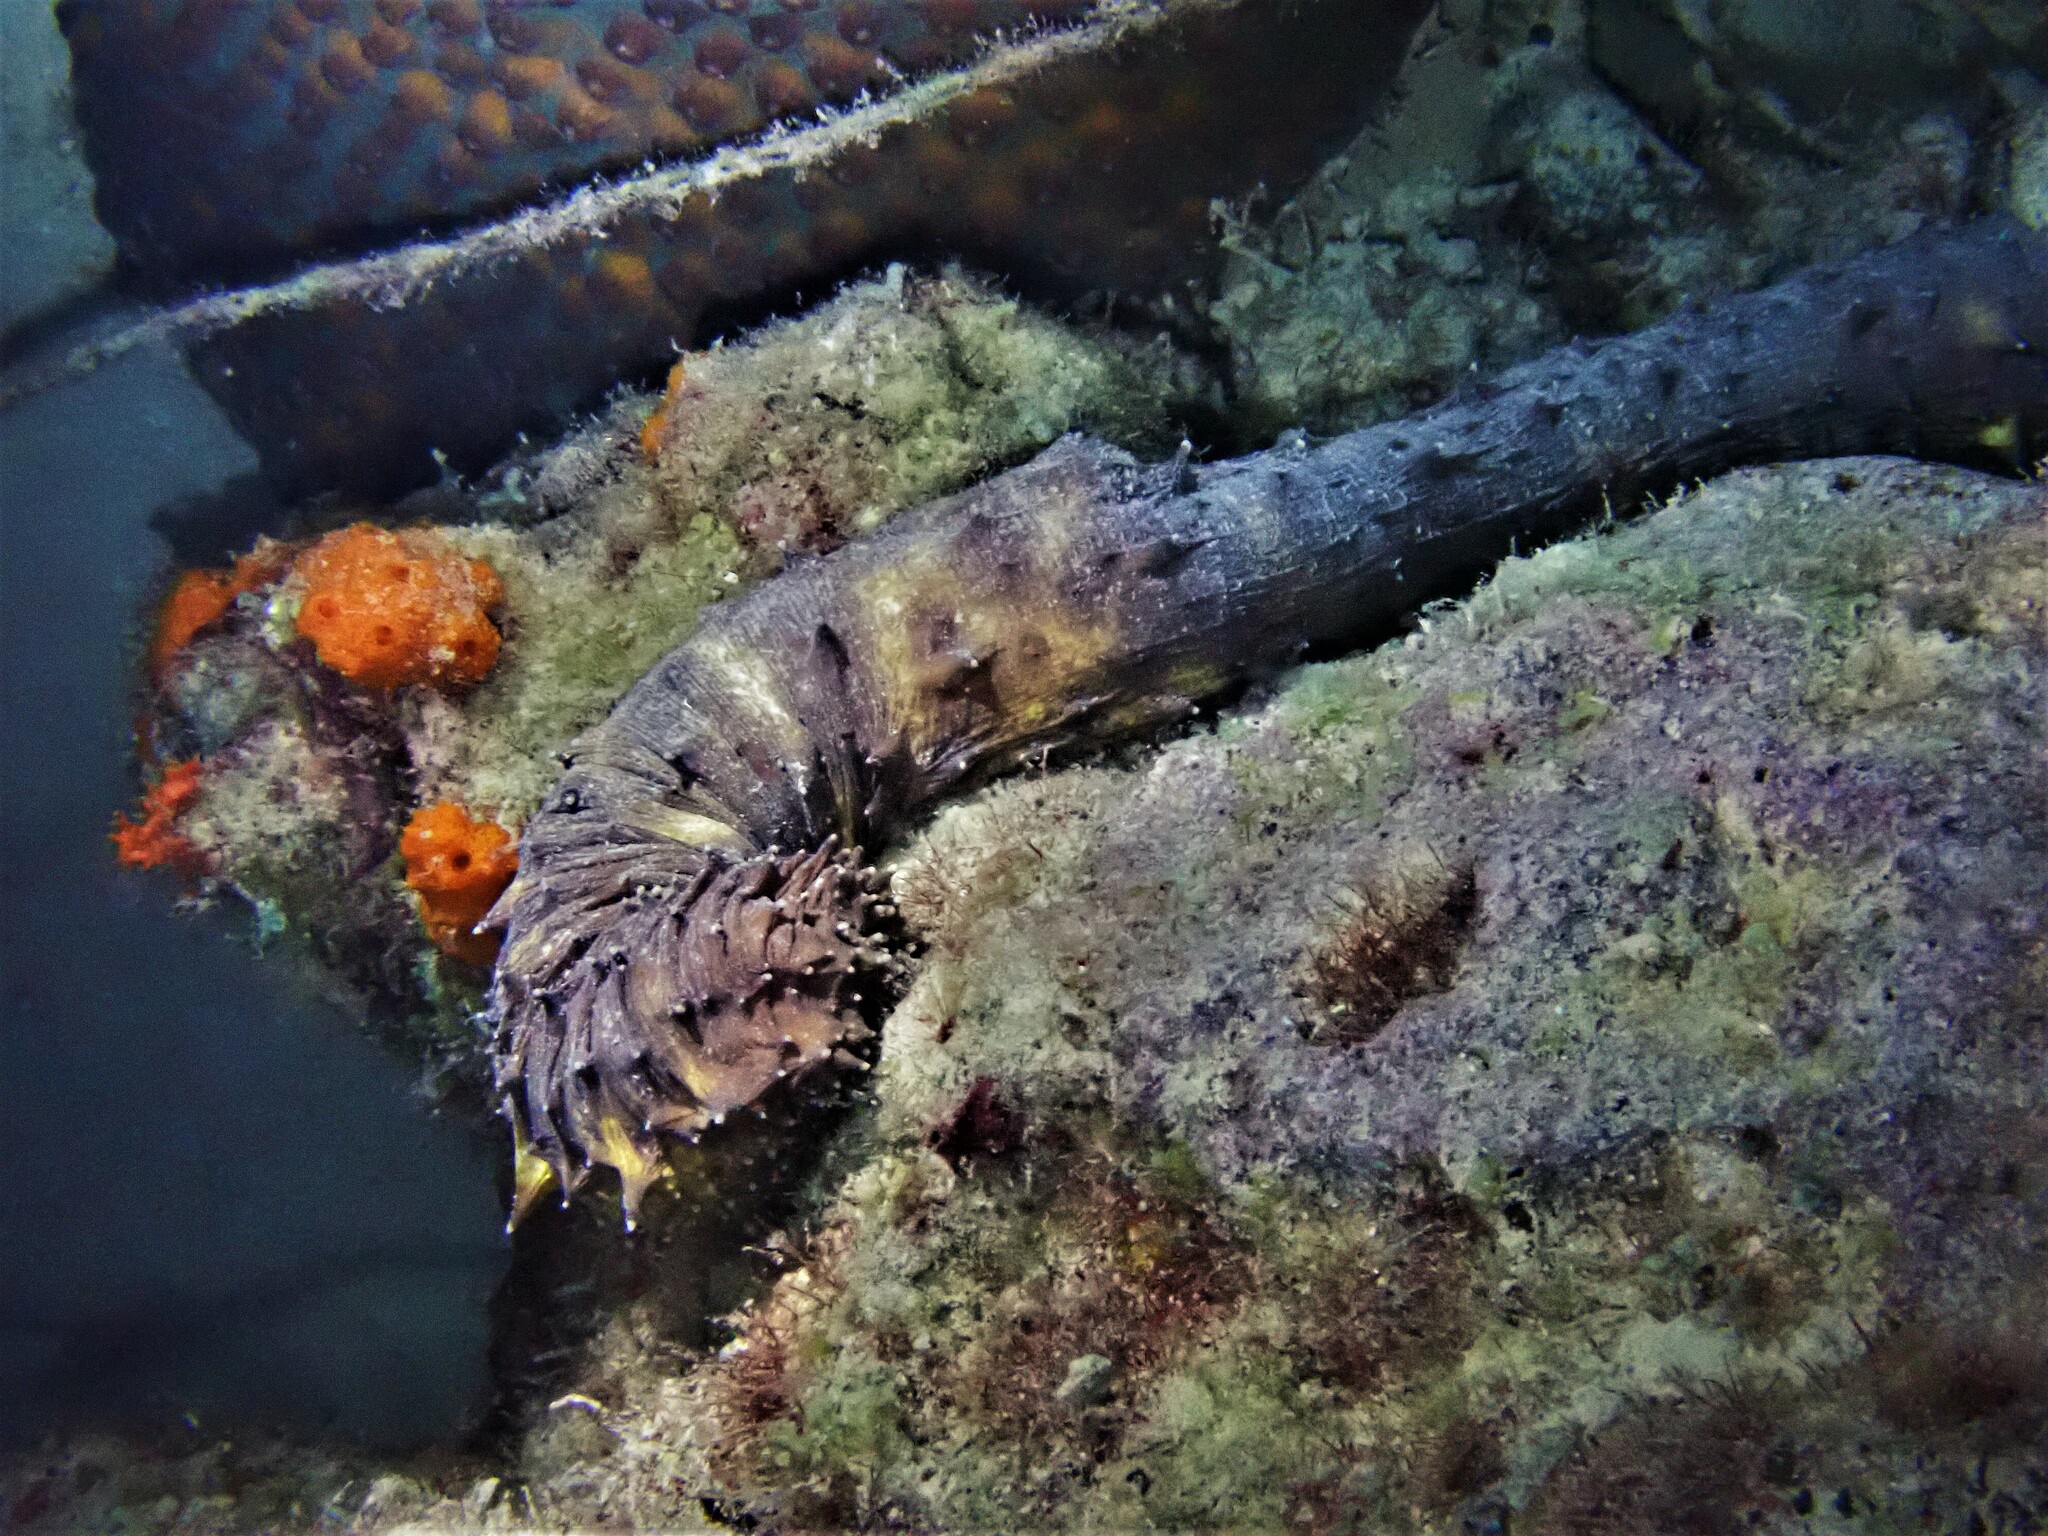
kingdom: Animalia
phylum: Echinodermata
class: Holothuroidea
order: Holothuriida
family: Holothuriidae
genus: Holothuria
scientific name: Holothuria thomasi
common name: Tiger tail sea cocumber
